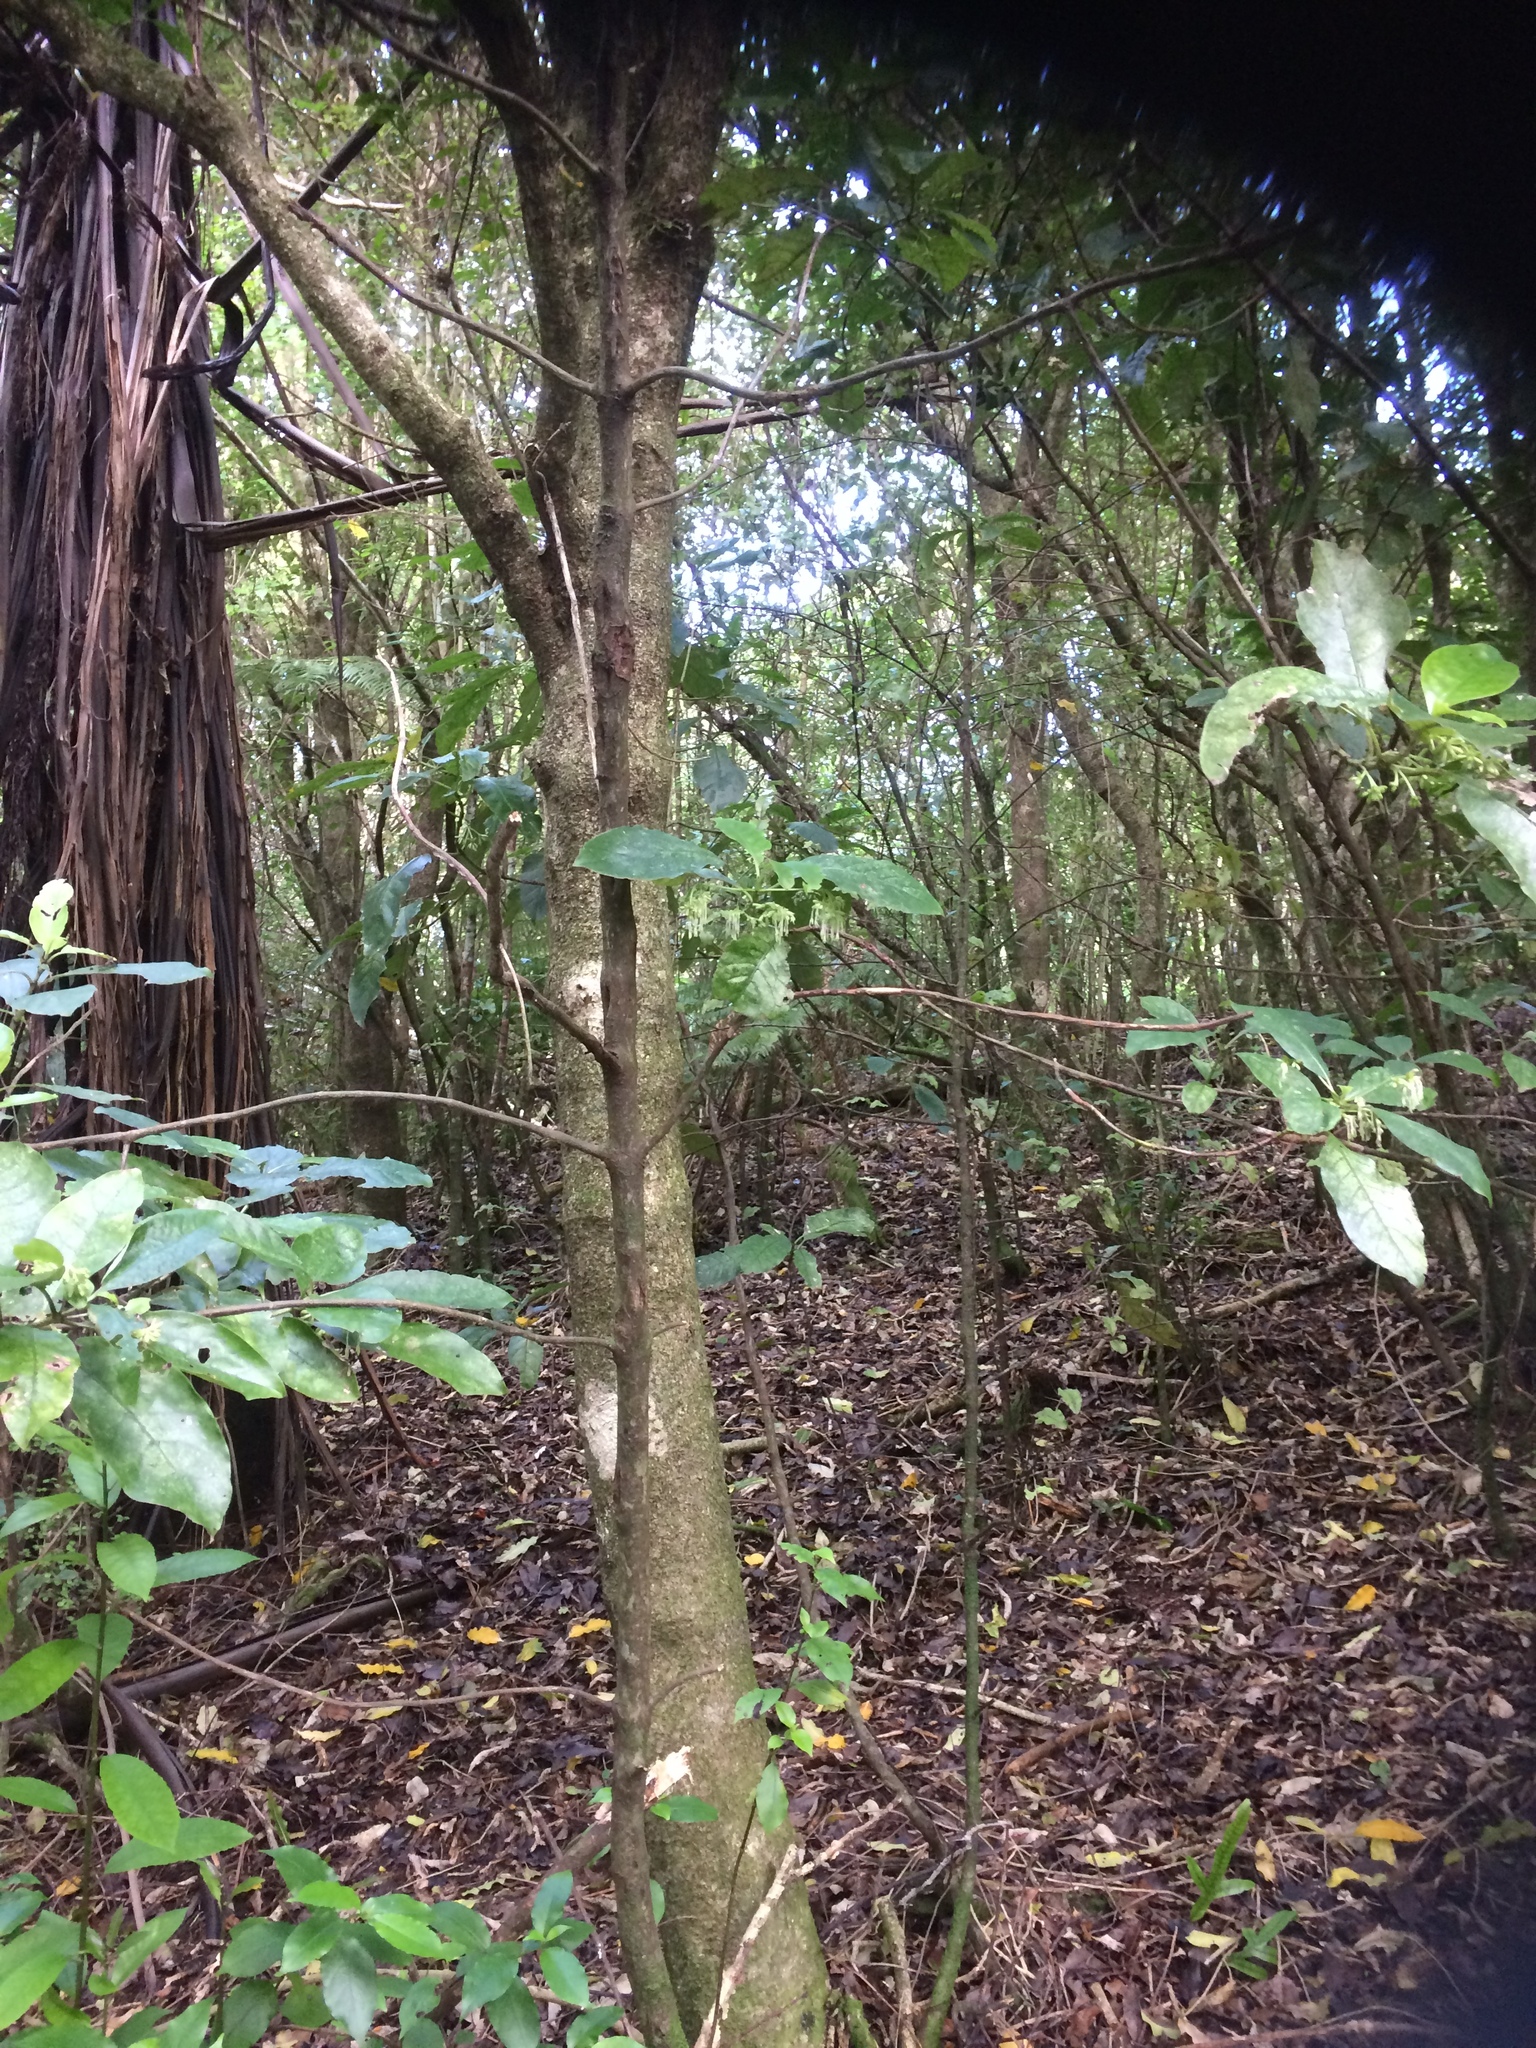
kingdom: Plantae
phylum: Tracheophyta
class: Magnoliopsida
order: Gentianales
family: Rubiaceae
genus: Coprosma
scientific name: Coprosma autumnalis
